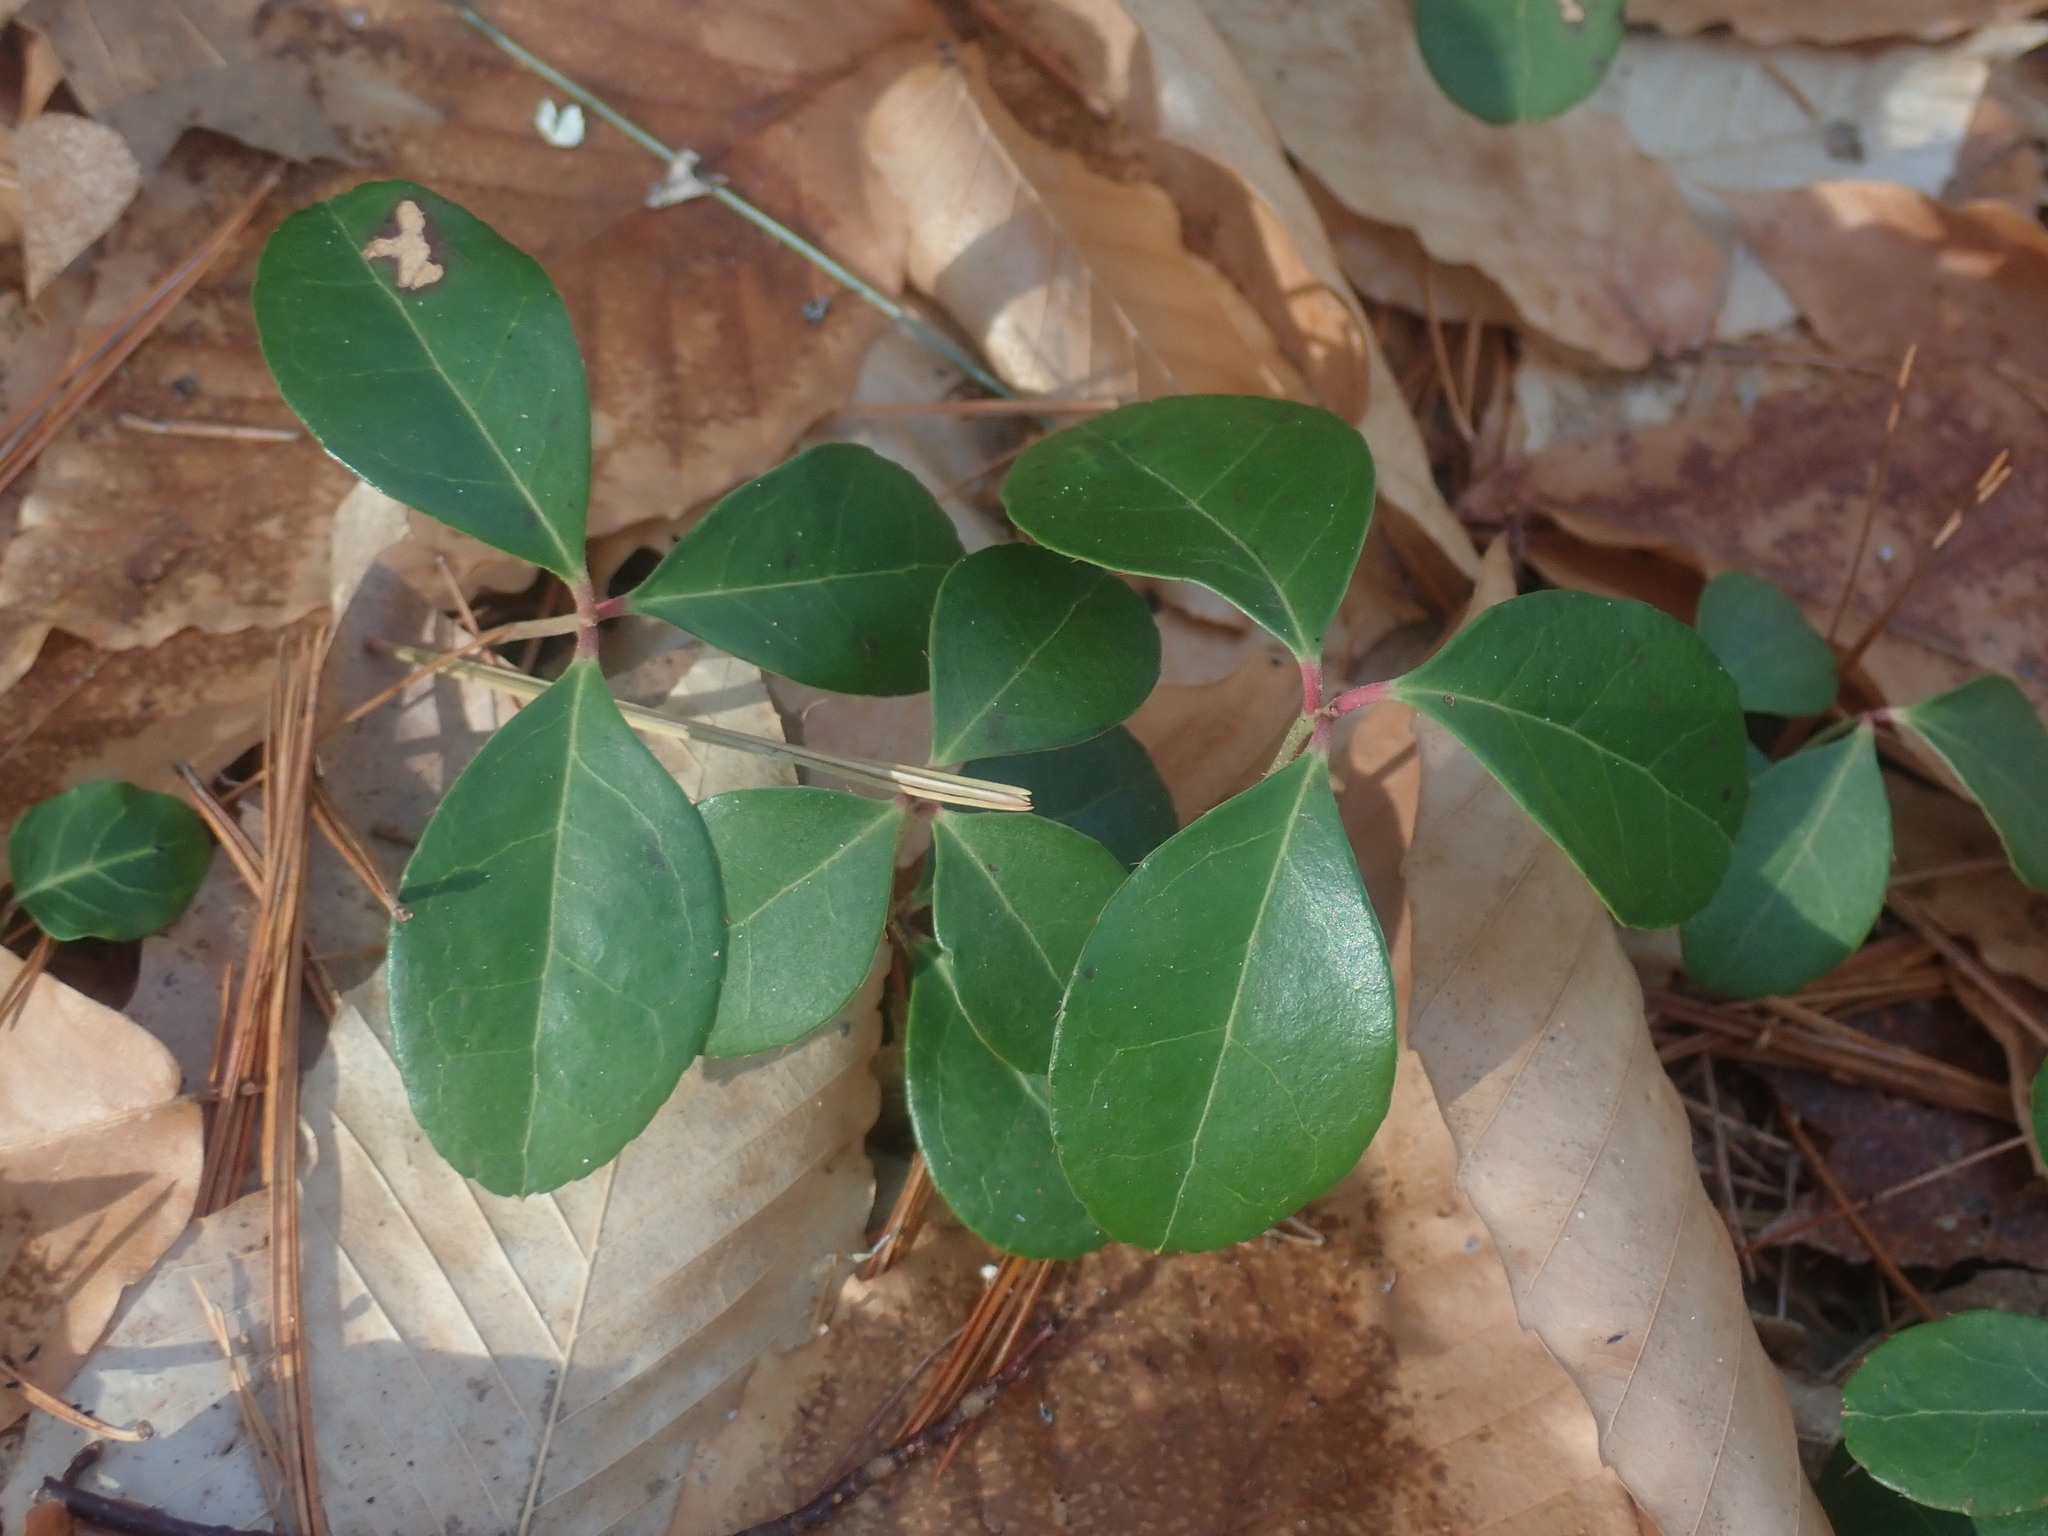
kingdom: Plantae
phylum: Tracheophyta
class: Magnoliopsida
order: Ericales
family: Ericaceae
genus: Gaultheria
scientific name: Gaultheria procumbens
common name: Checkerberry
